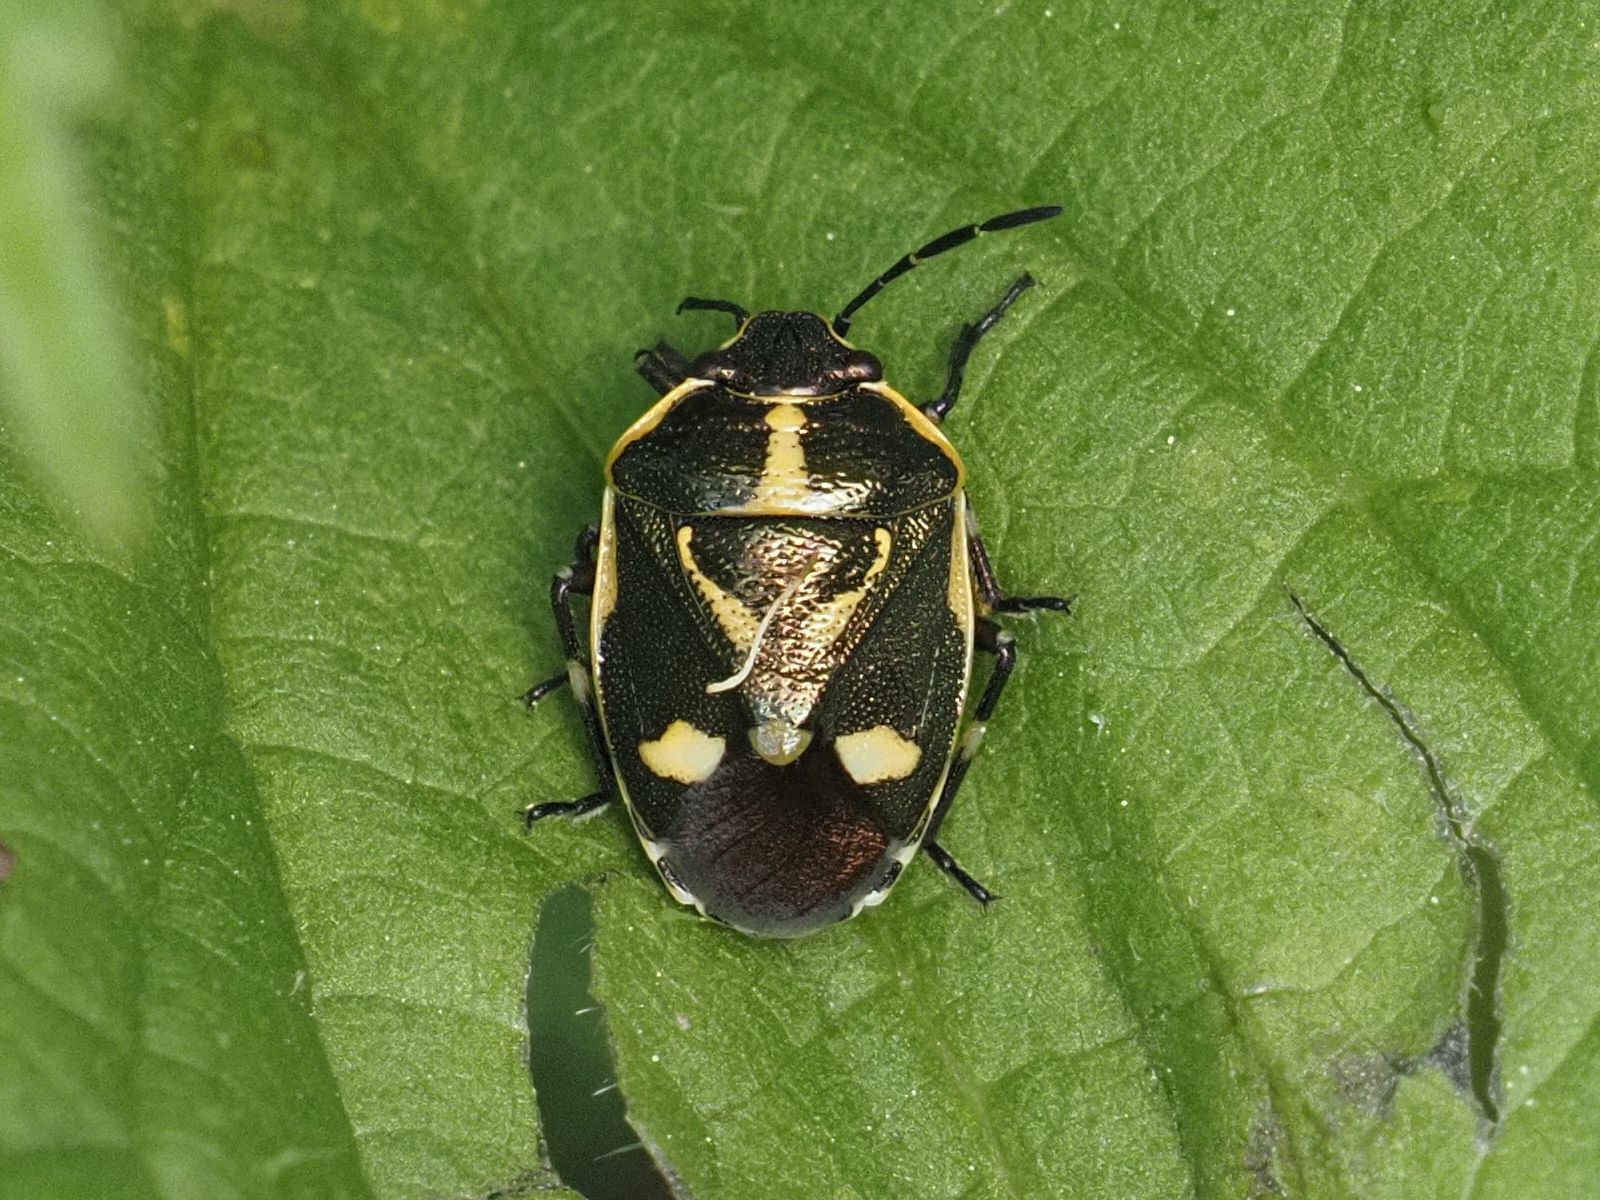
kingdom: Animalia
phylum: Arthropoda
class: Insecta
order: Hemiptera
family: Pentatomidae
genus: Eurydema
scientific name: Eurydema oleracea
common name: Cabbage bug
